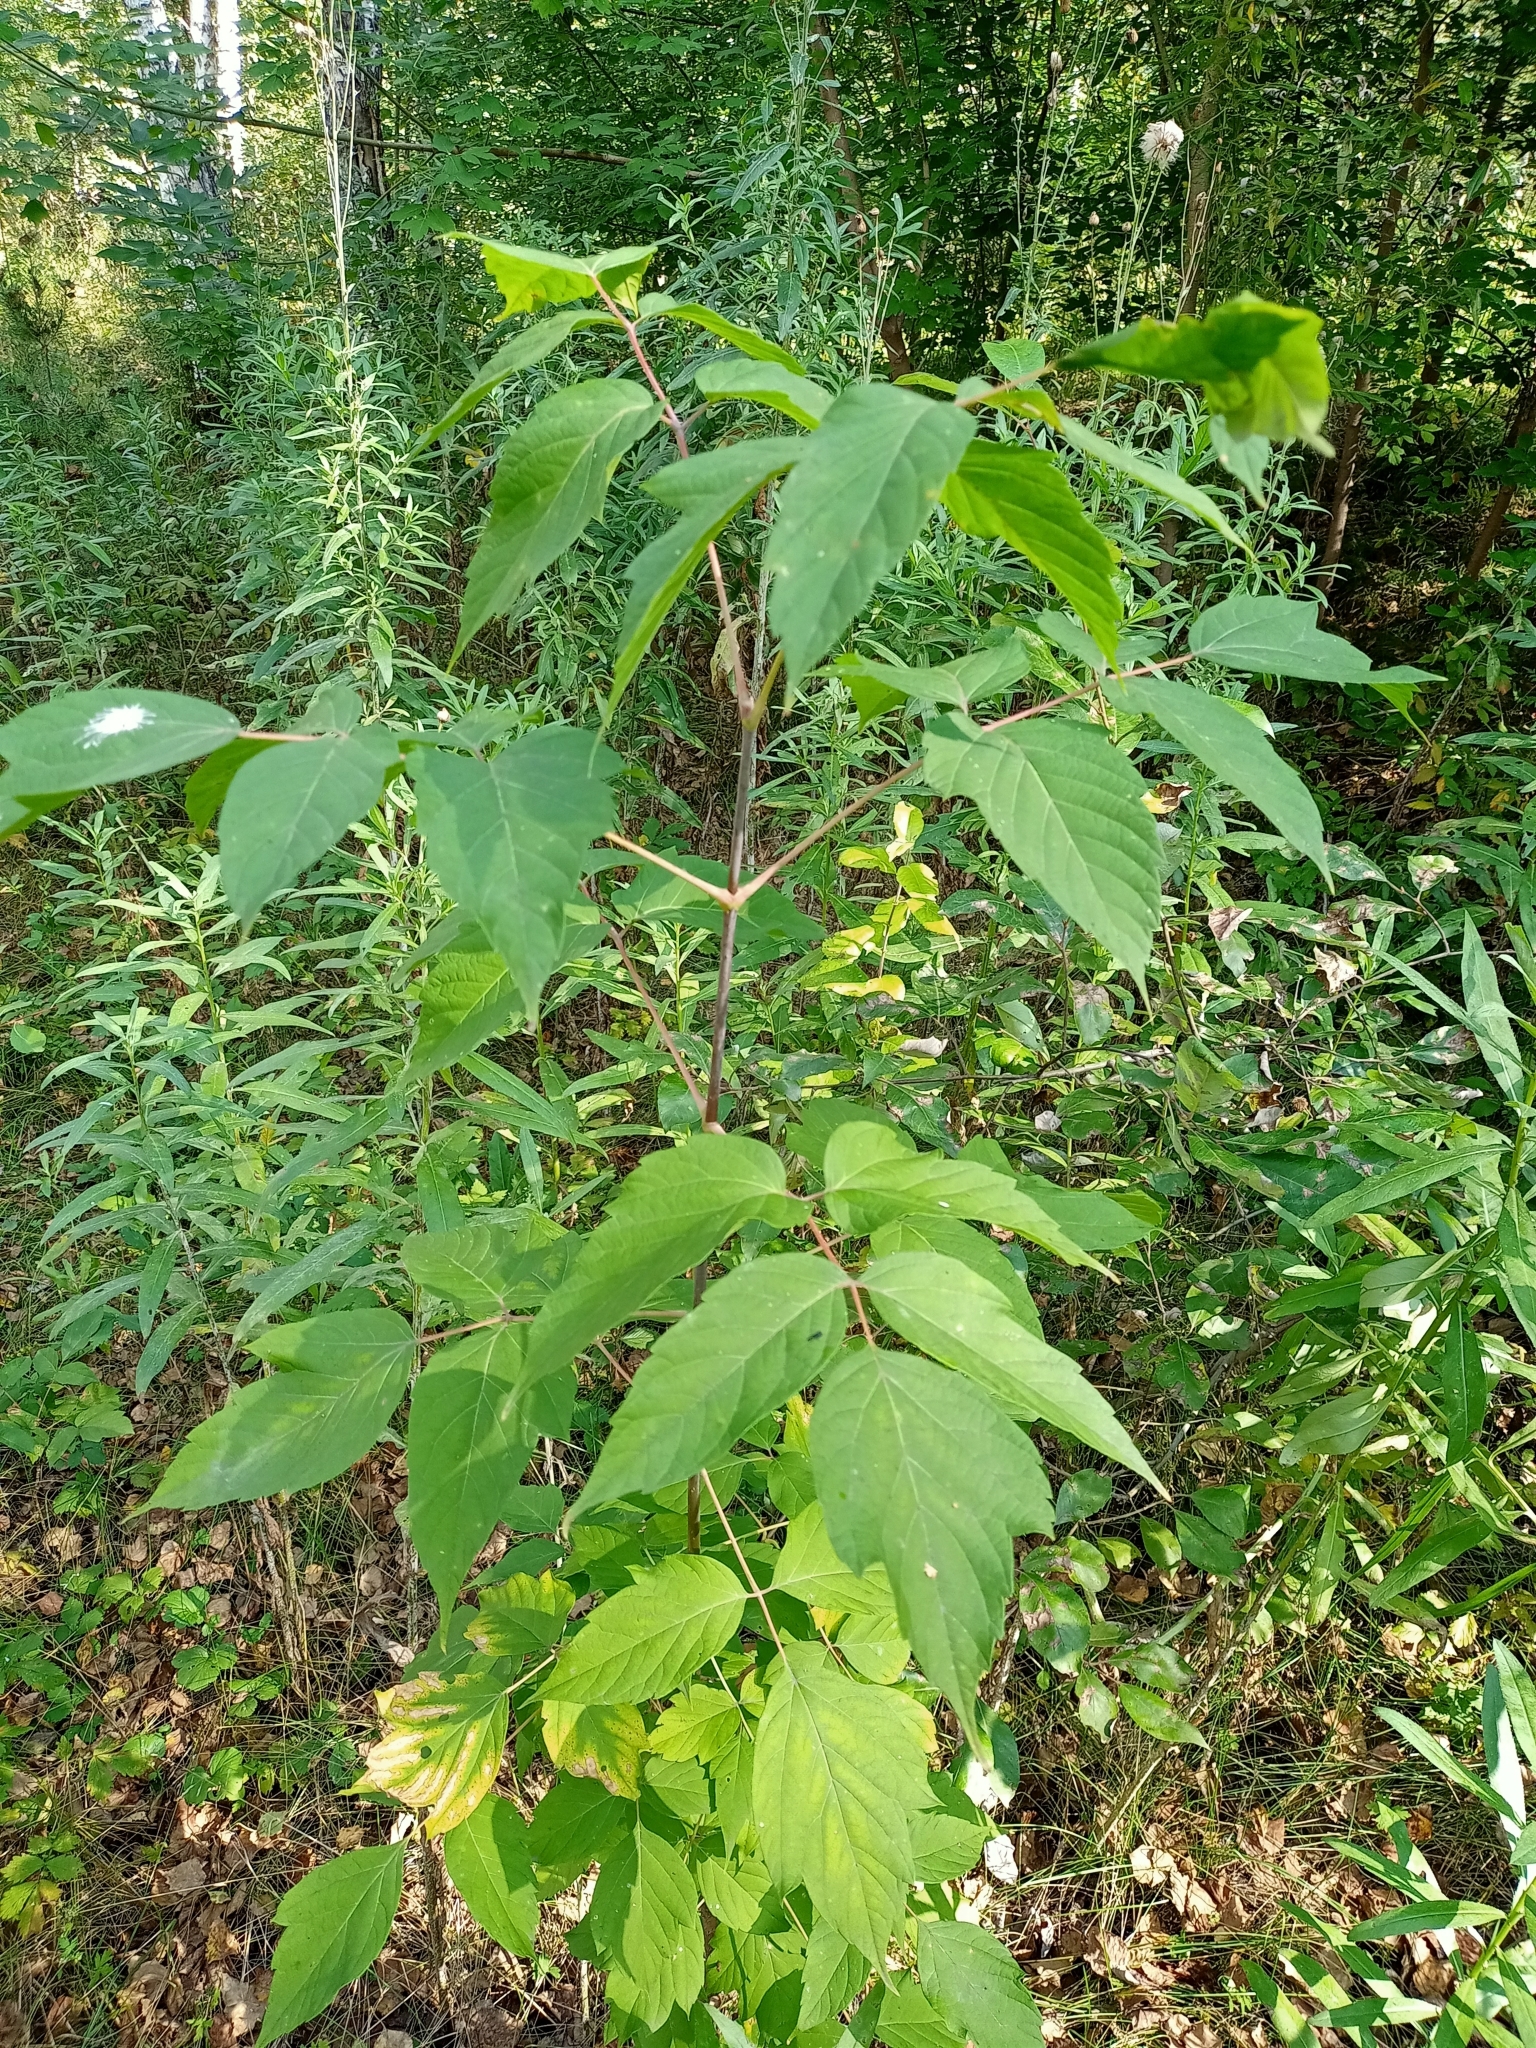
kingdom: Plantae
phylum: Tracheophyta
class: Magnoliopsida
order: Sapindales
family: Sapindaceae
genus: Acer
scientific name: Acer negundo
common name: Ashleaf maple
